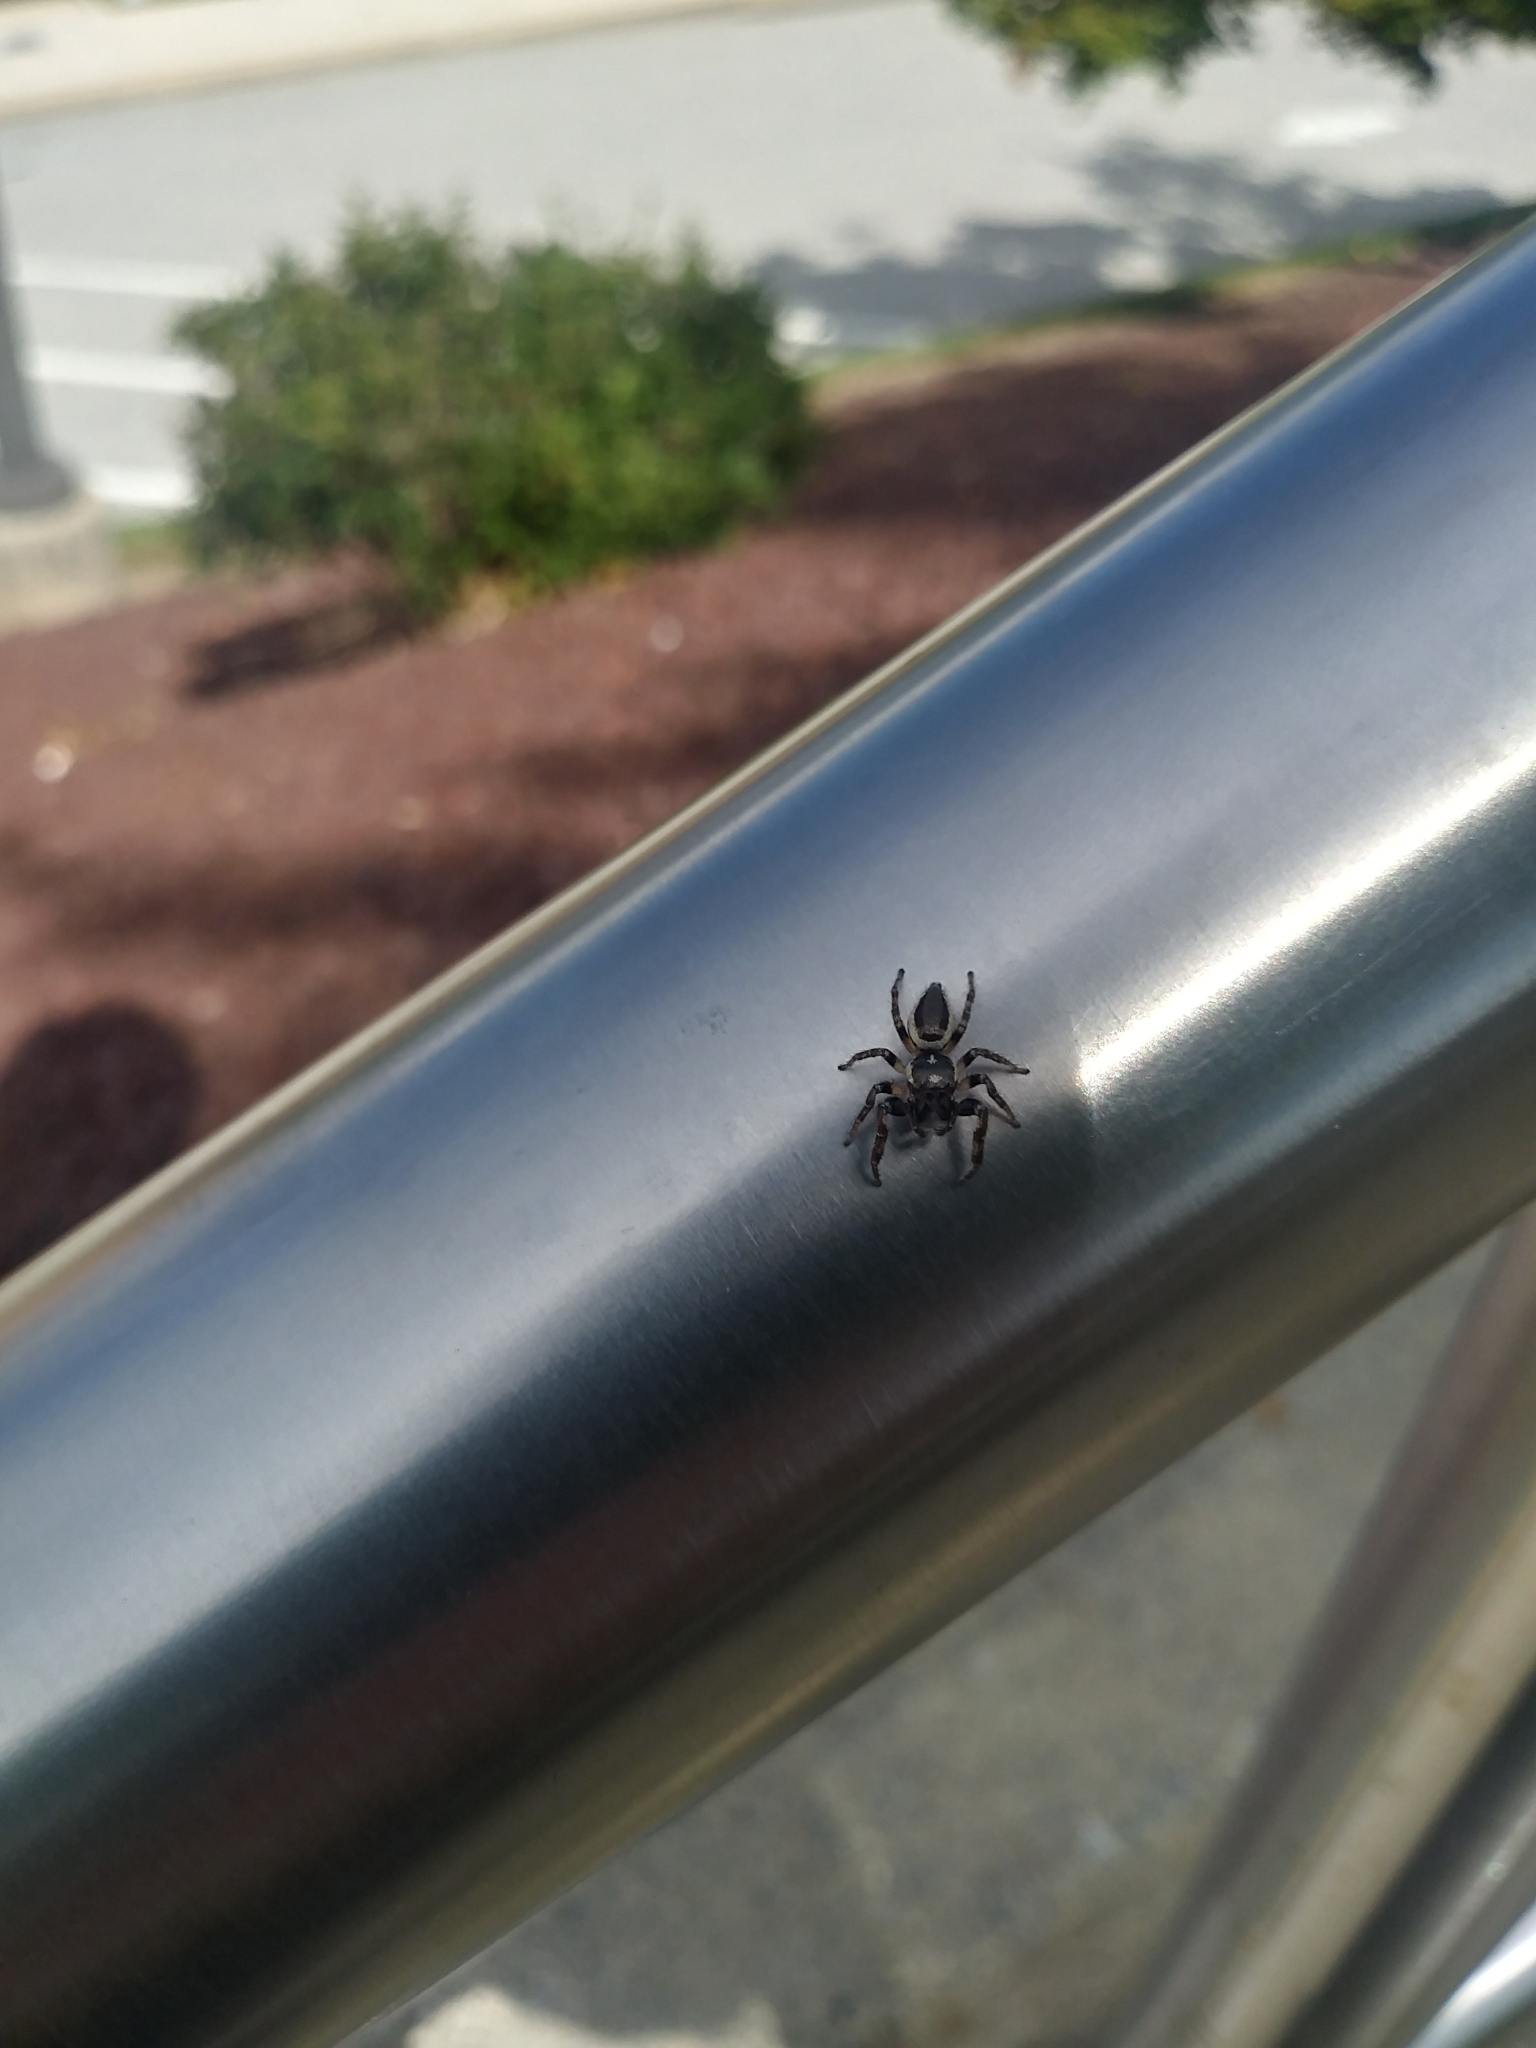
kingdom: Animalia
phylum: Arthropoda
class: Arachnida
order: Araneae
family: Salticidae
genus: Eris
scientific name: Eris militaris
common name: Bronze jumper
